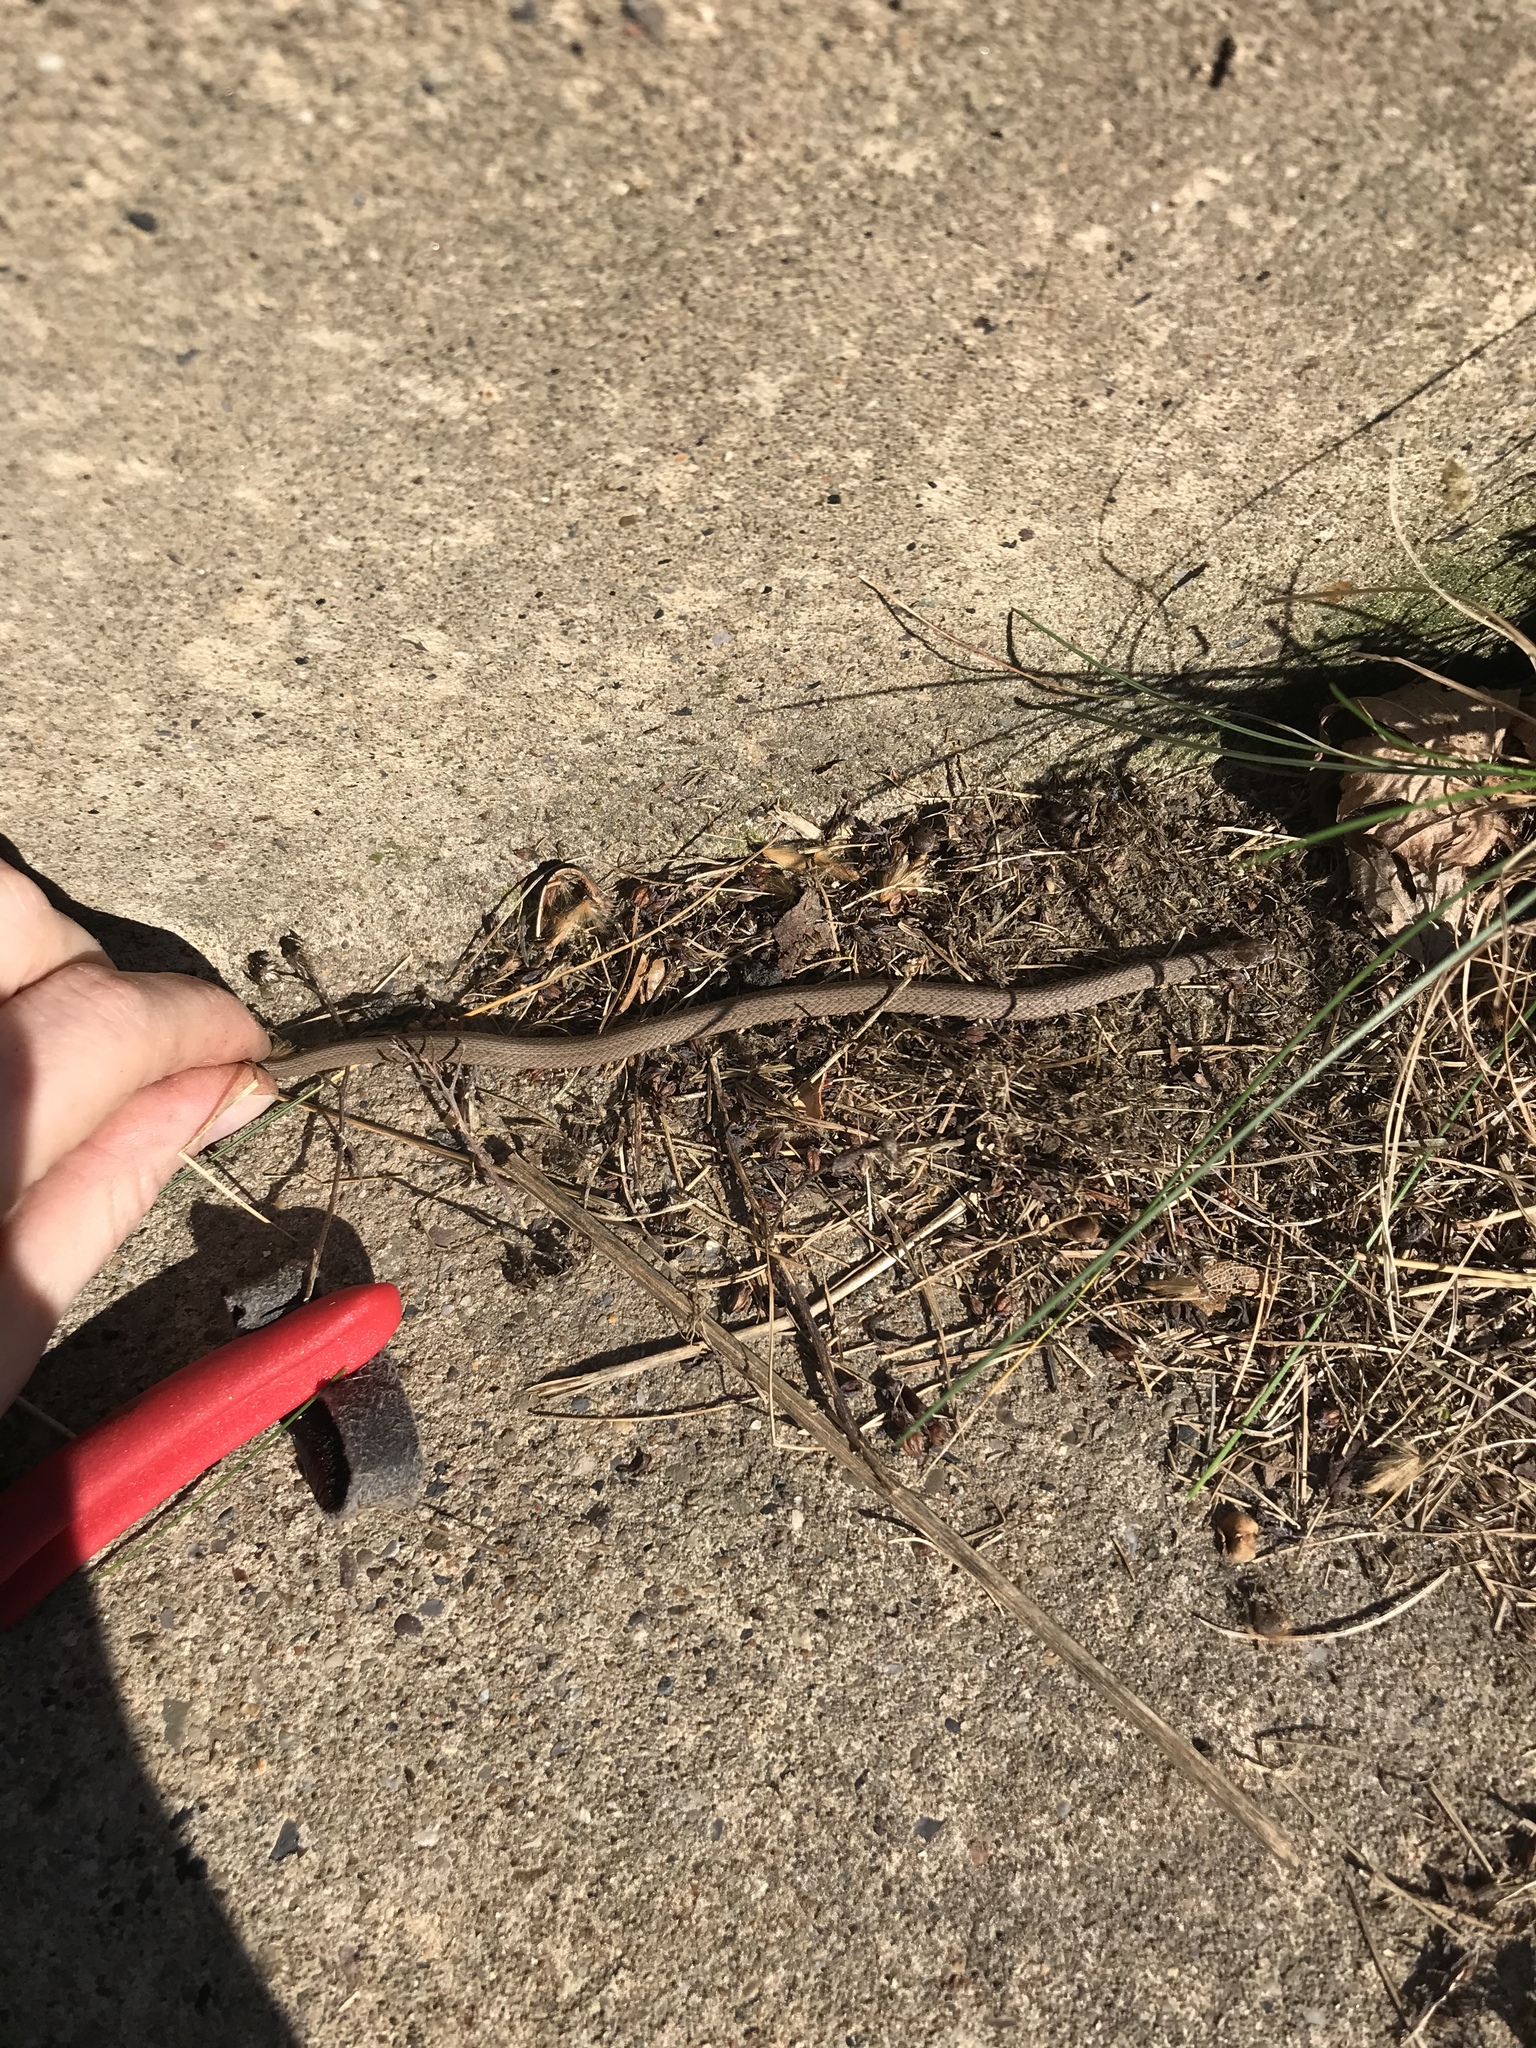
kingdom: Animalia
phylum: Chordata
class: Squamata
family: Colubridae
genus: Storeria
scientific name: Storeria dekayi
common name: (dekay’s) brown snake
